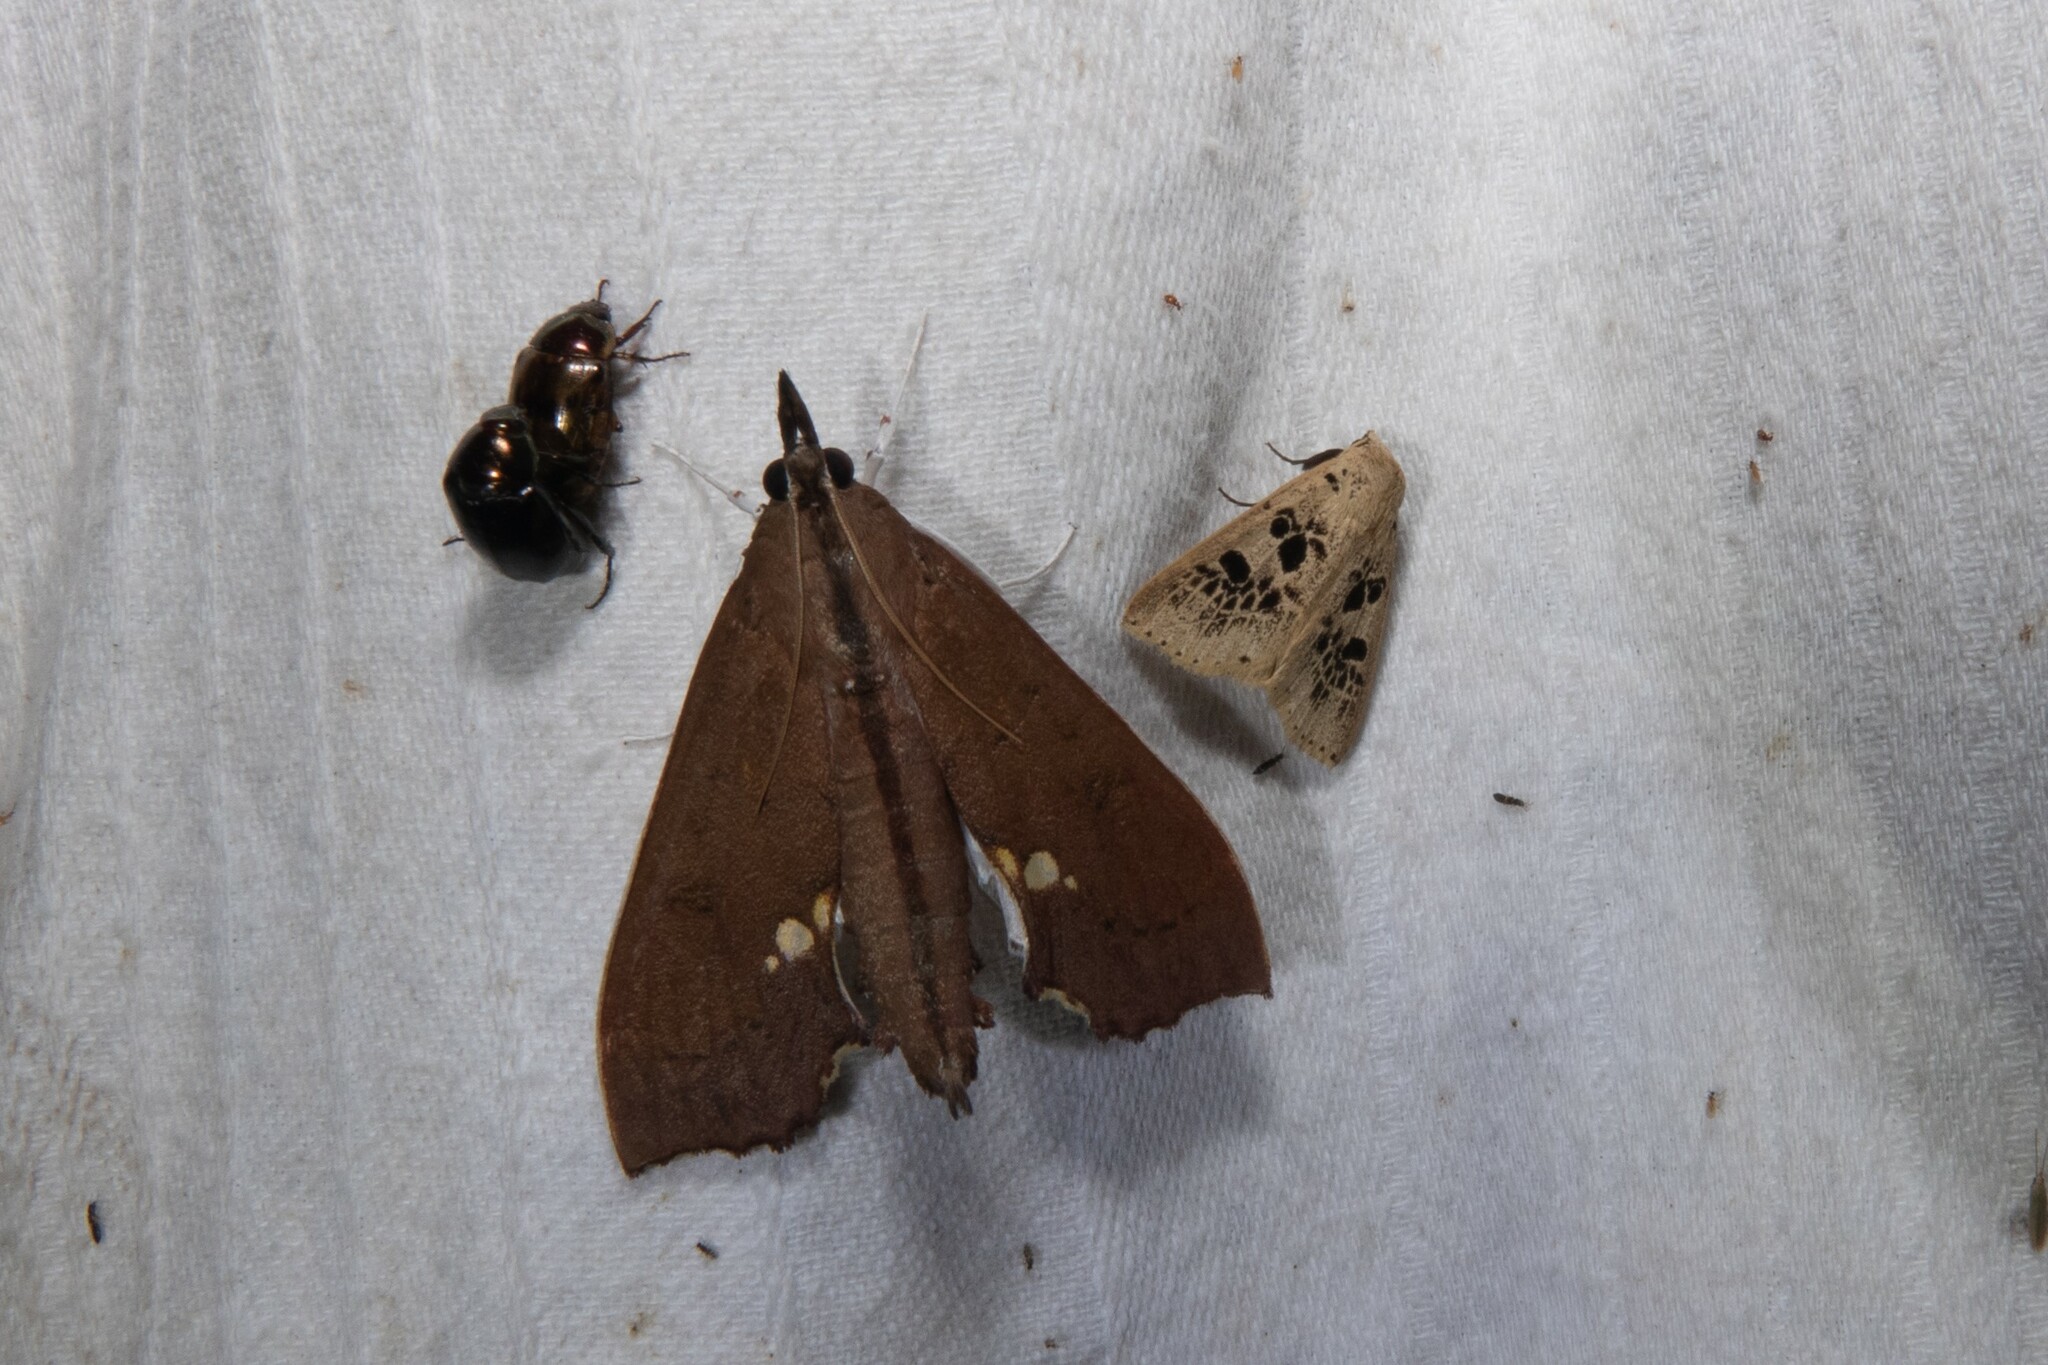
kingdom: Animalia
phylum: Arthropoda
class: Insecta
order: Lepidoptera
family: Crambidae
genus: Liopasia
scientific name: Liopasia andrealis
